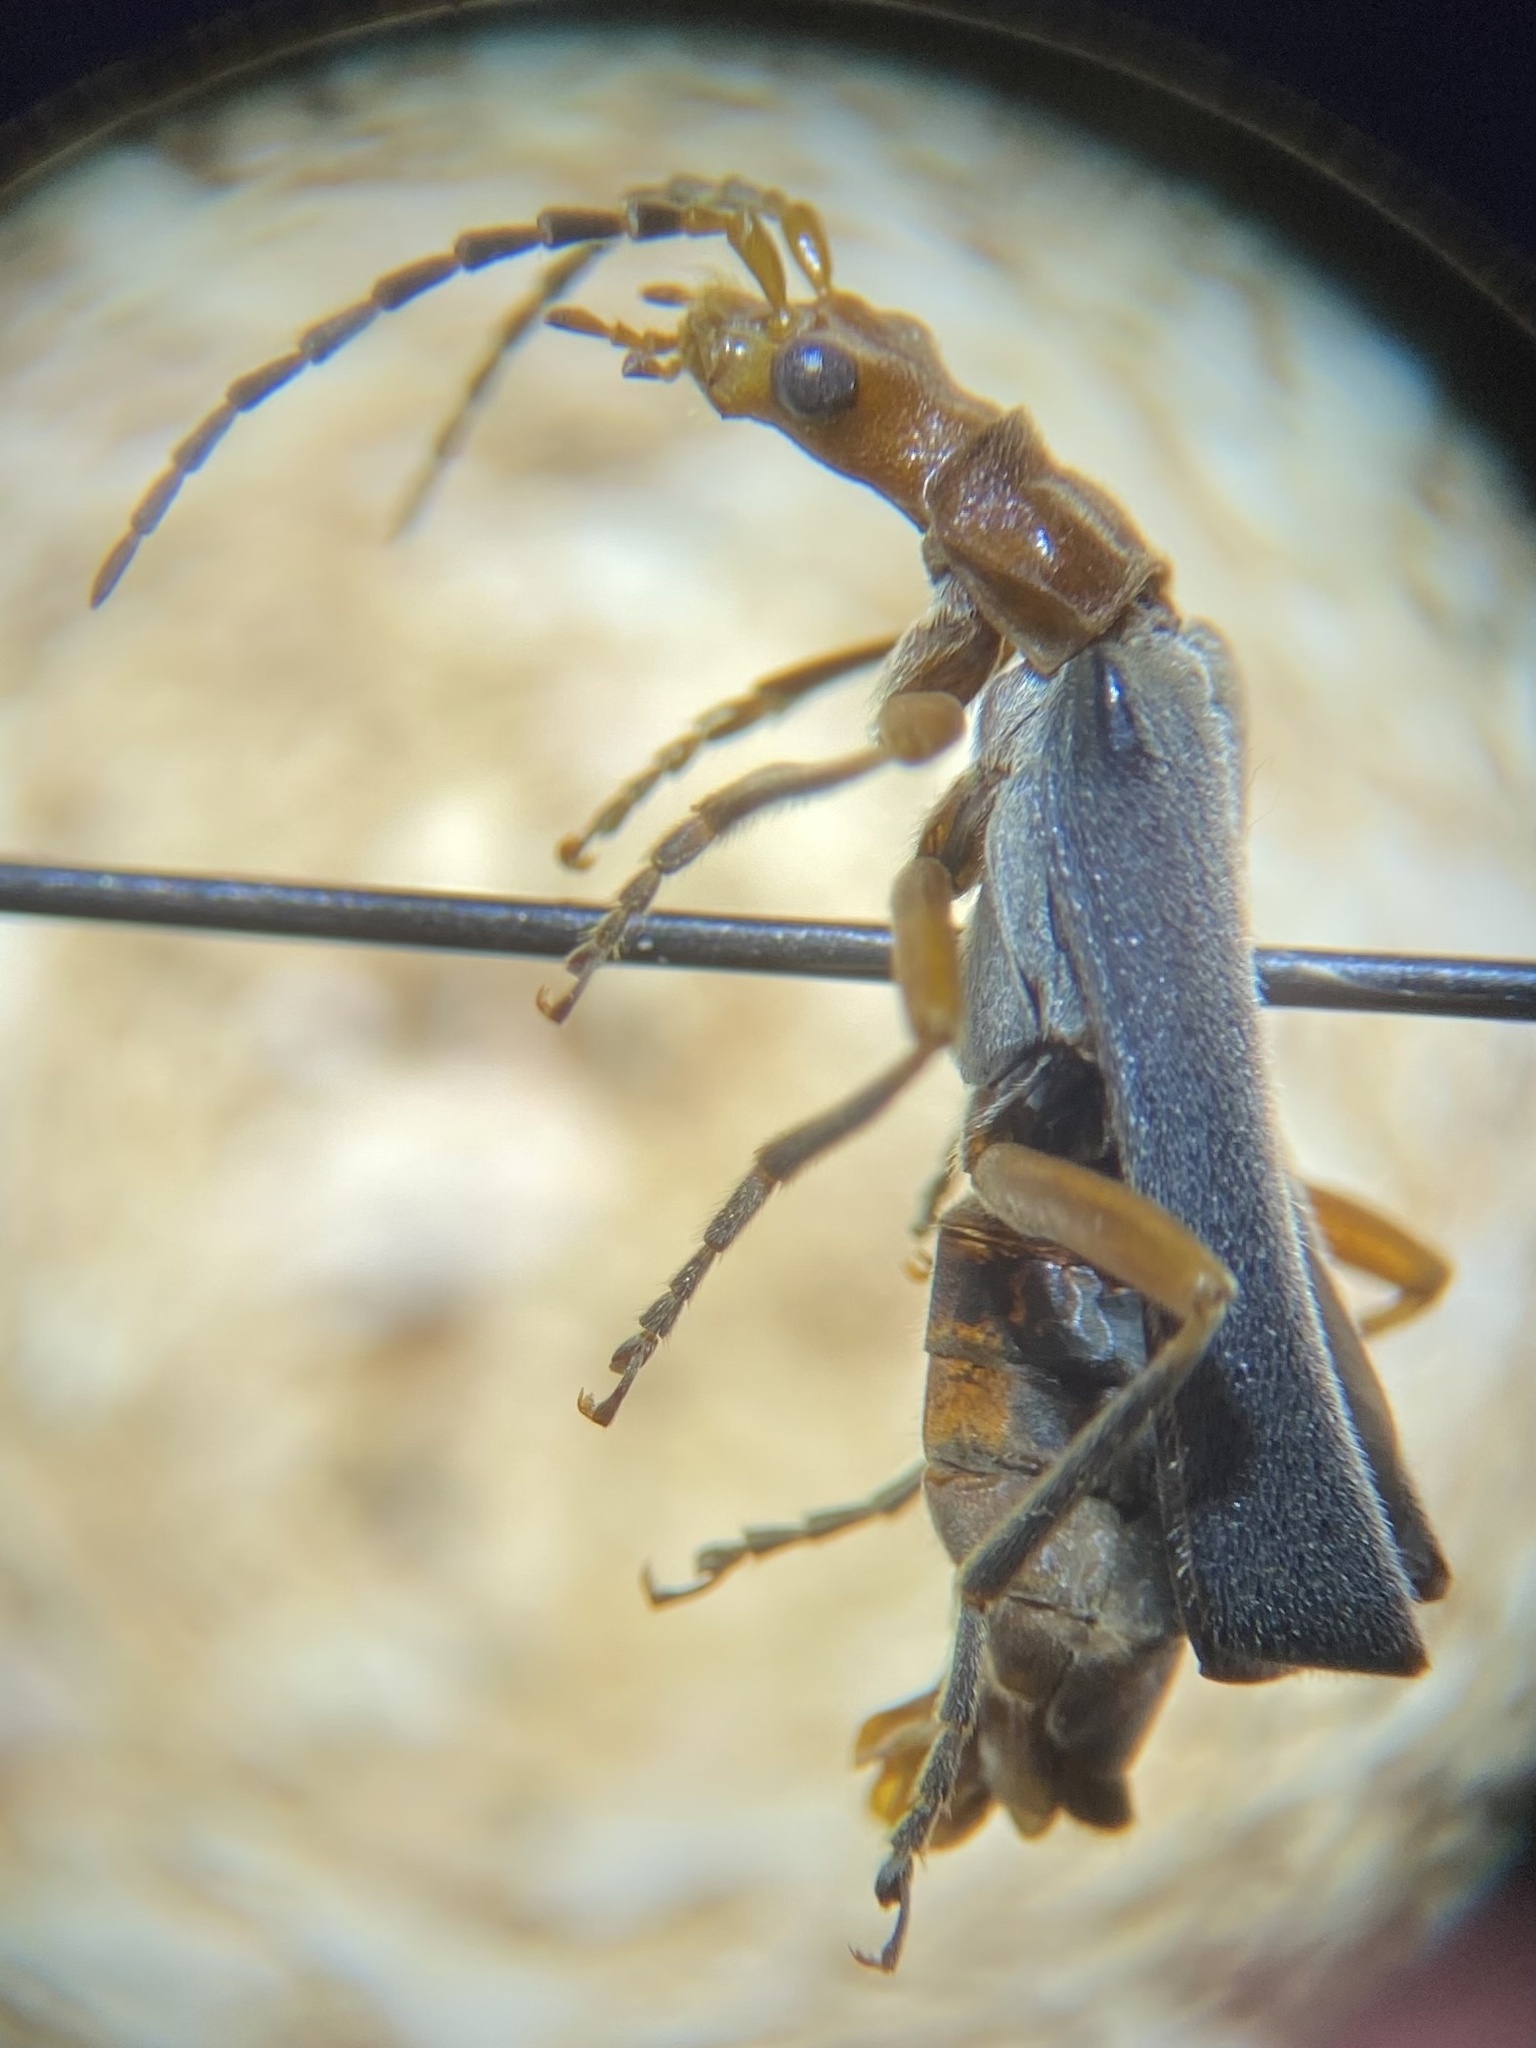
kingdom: Animalia
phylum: Arthropoda
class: Insecta
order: Coleoptera
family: Cantharidae
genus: Podabrus
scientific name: Podabrus tomentosus
